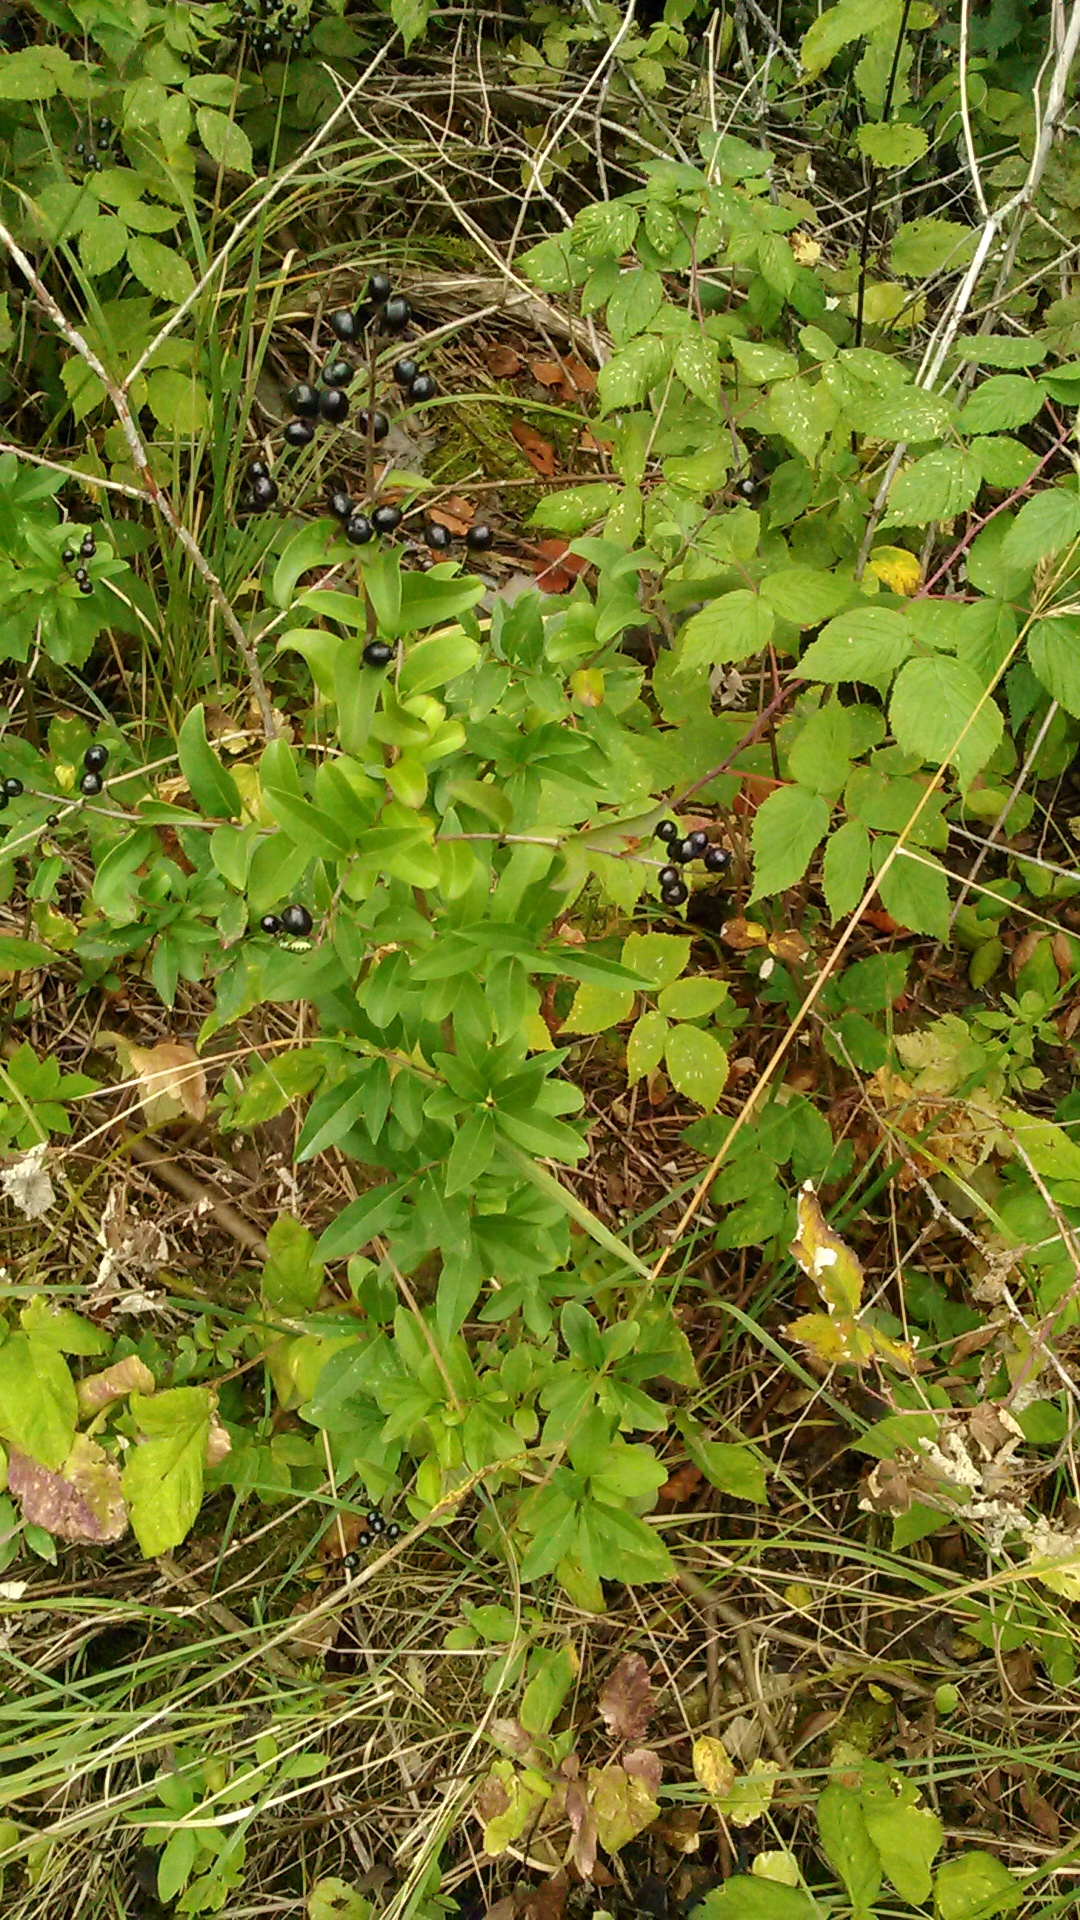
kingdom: Plantae
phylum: Tracheophyta
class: Magnoliopsida
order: Lamiales
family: Oleaceae
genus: Ligustrum
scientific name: Ligustrum vulgare
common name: Wild privet
